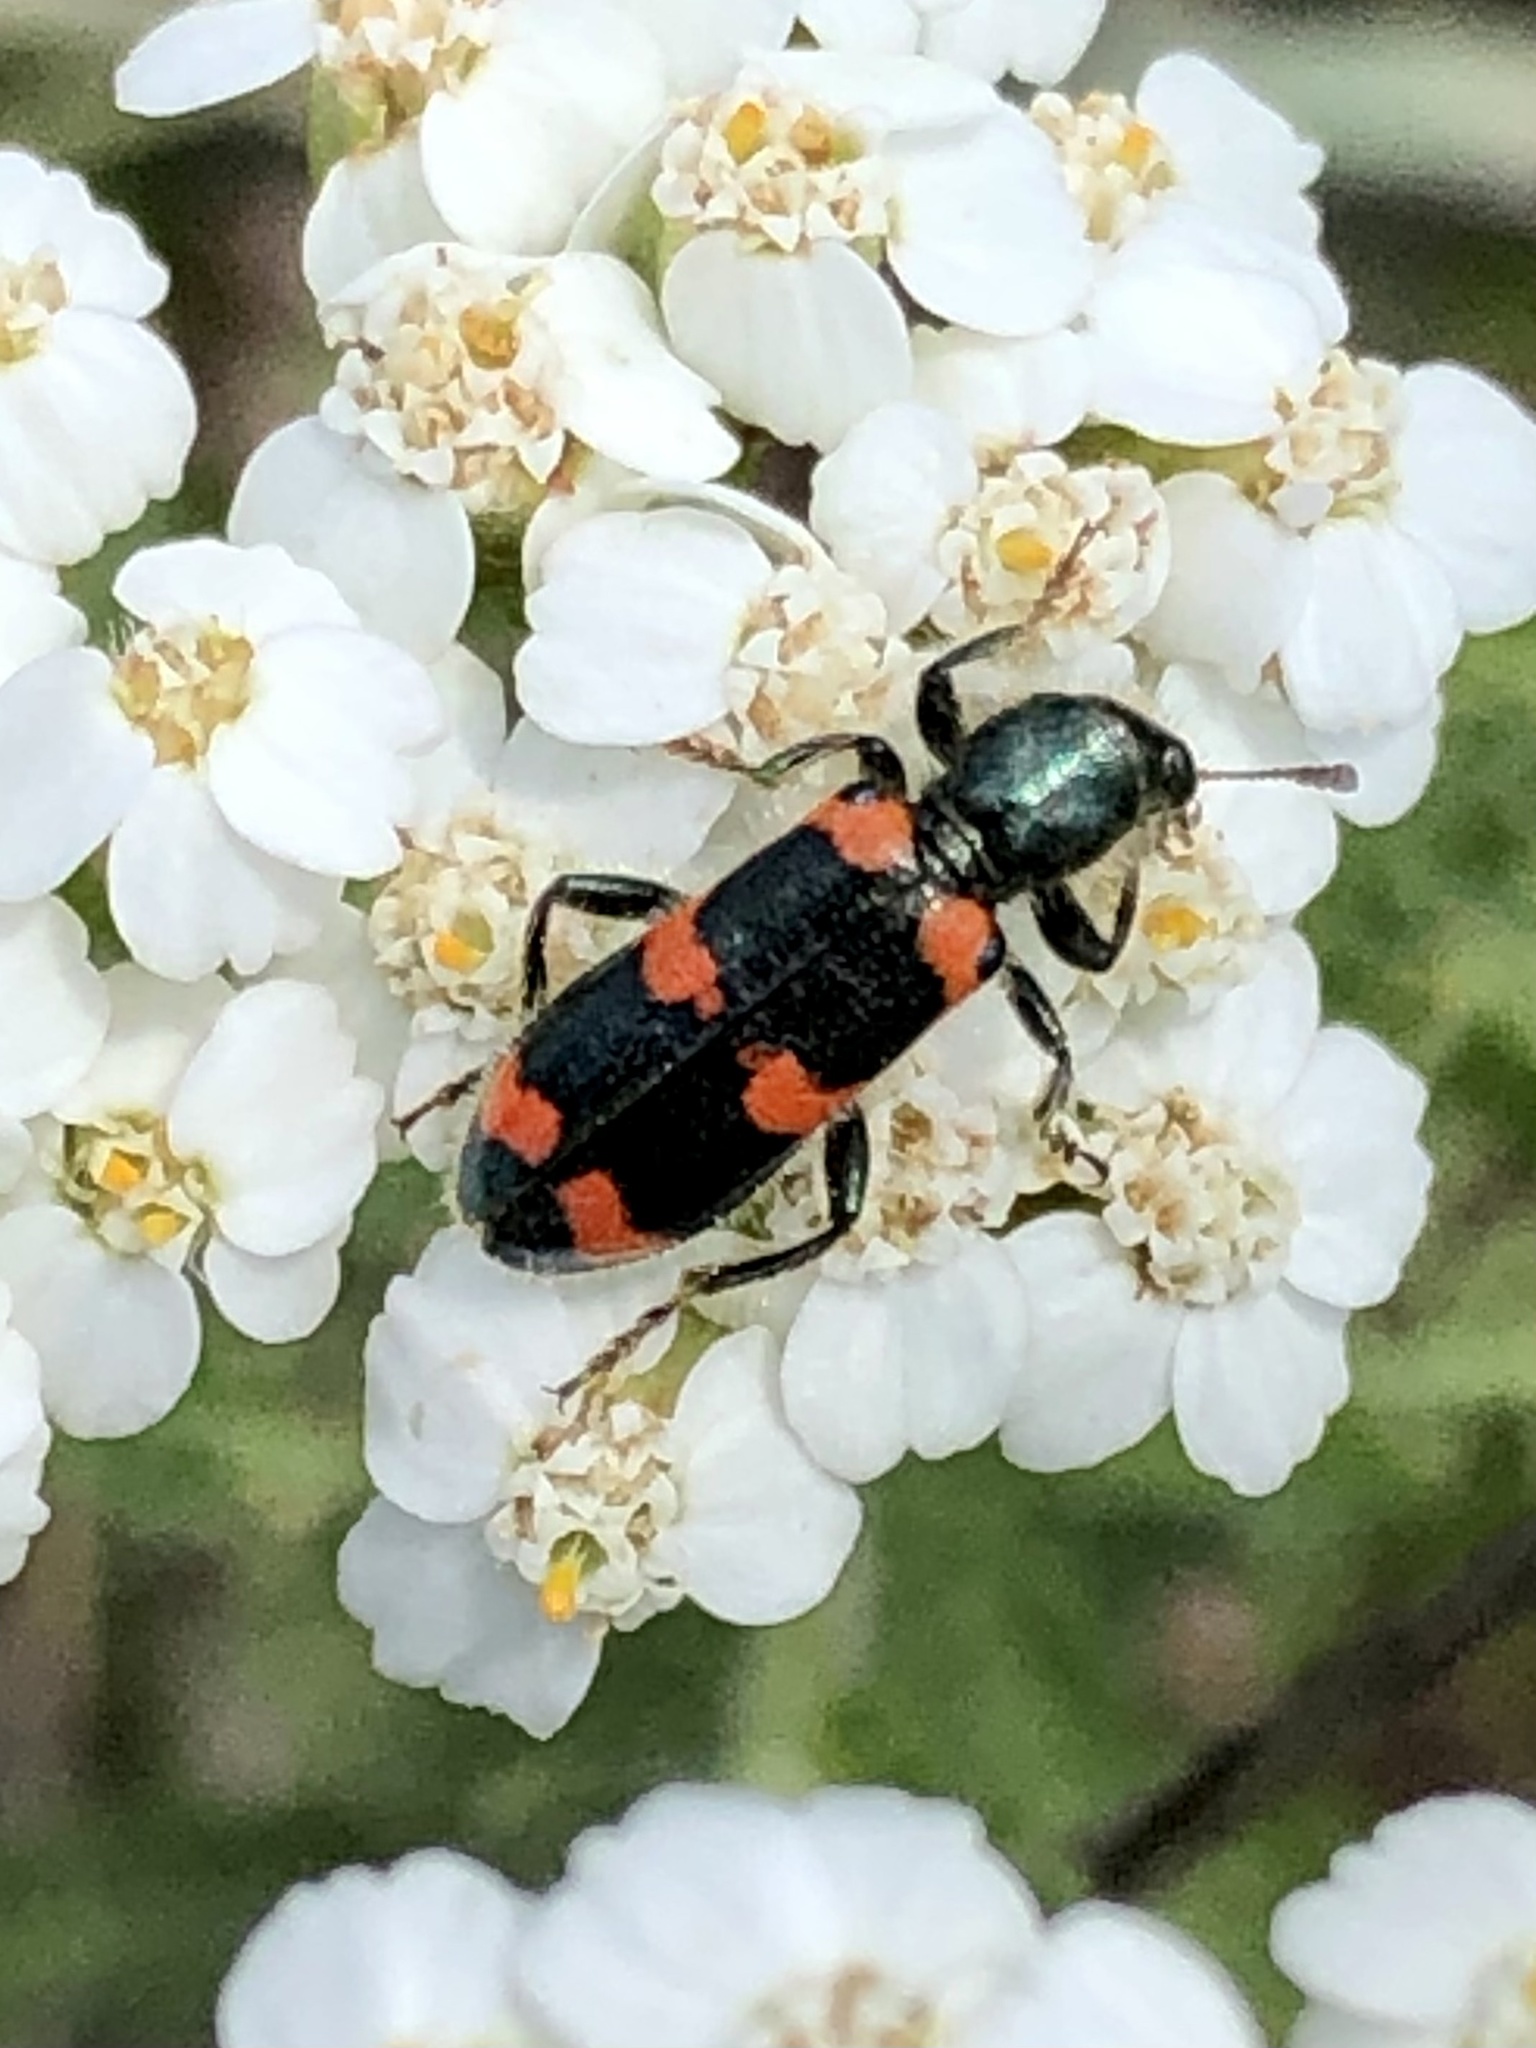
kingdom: Animalia
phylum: Arthropoda
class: Insecta
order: Coleoptera
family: Cleridae
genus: Trichodes
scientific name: Trichodes nutalli
